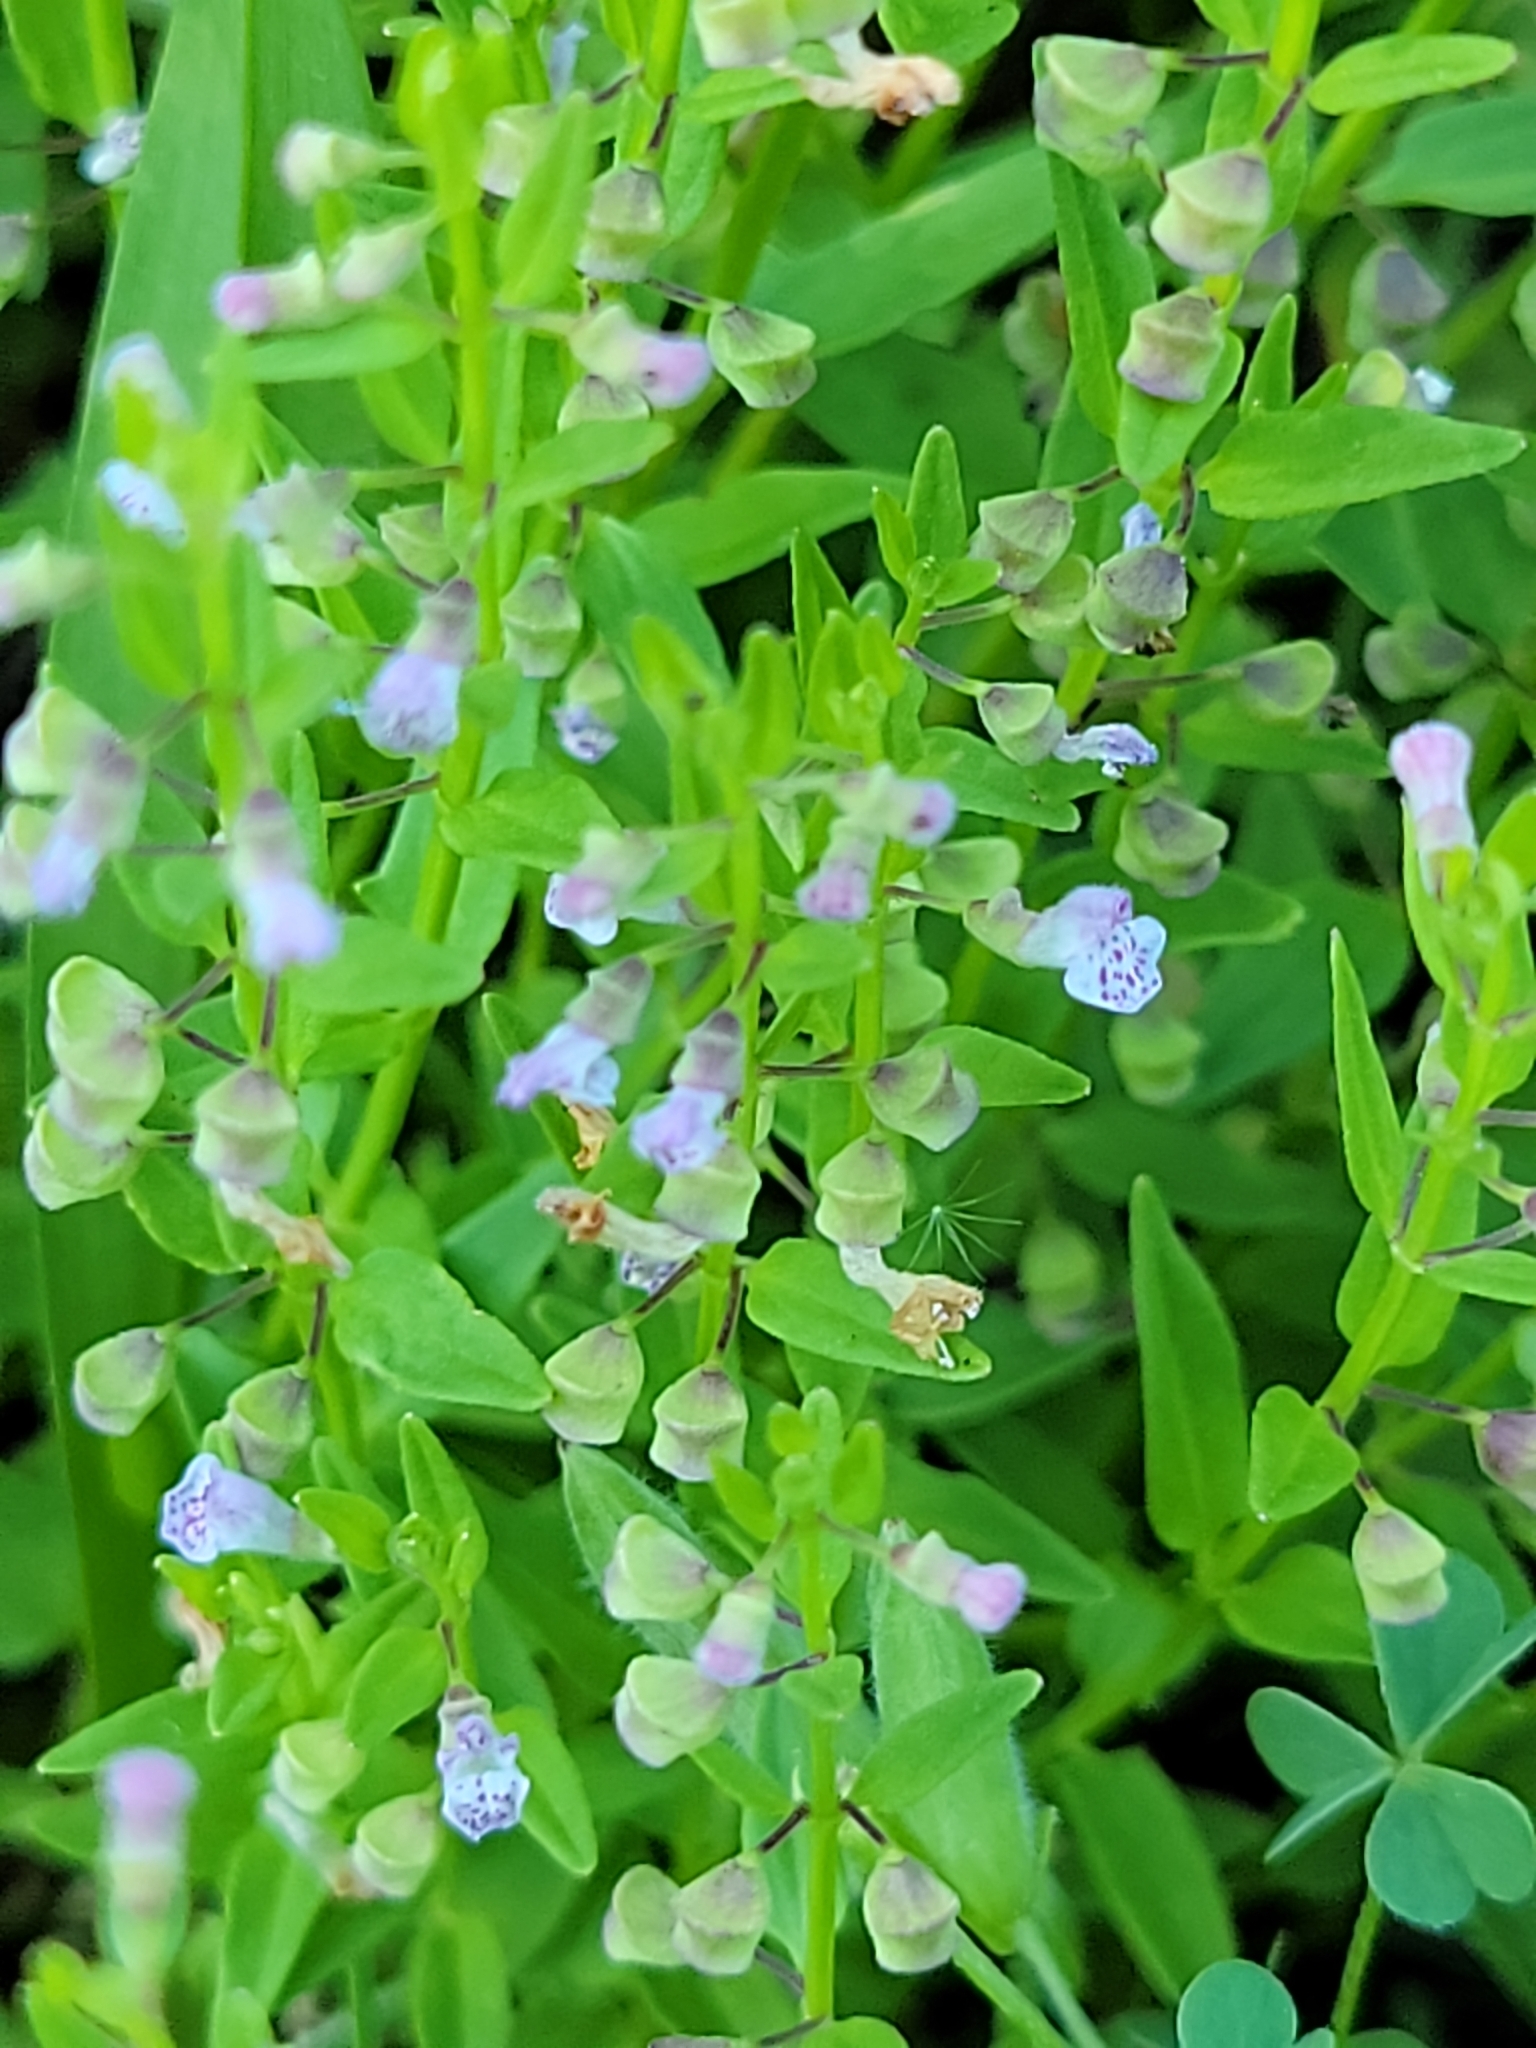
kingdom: Plantae
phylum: Tracheophyta
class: Magnoliopsida
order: Lamiales
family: Lamiaceae
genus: Scutellaria
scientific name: Scutellaria racemosa
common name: South american skullcap
